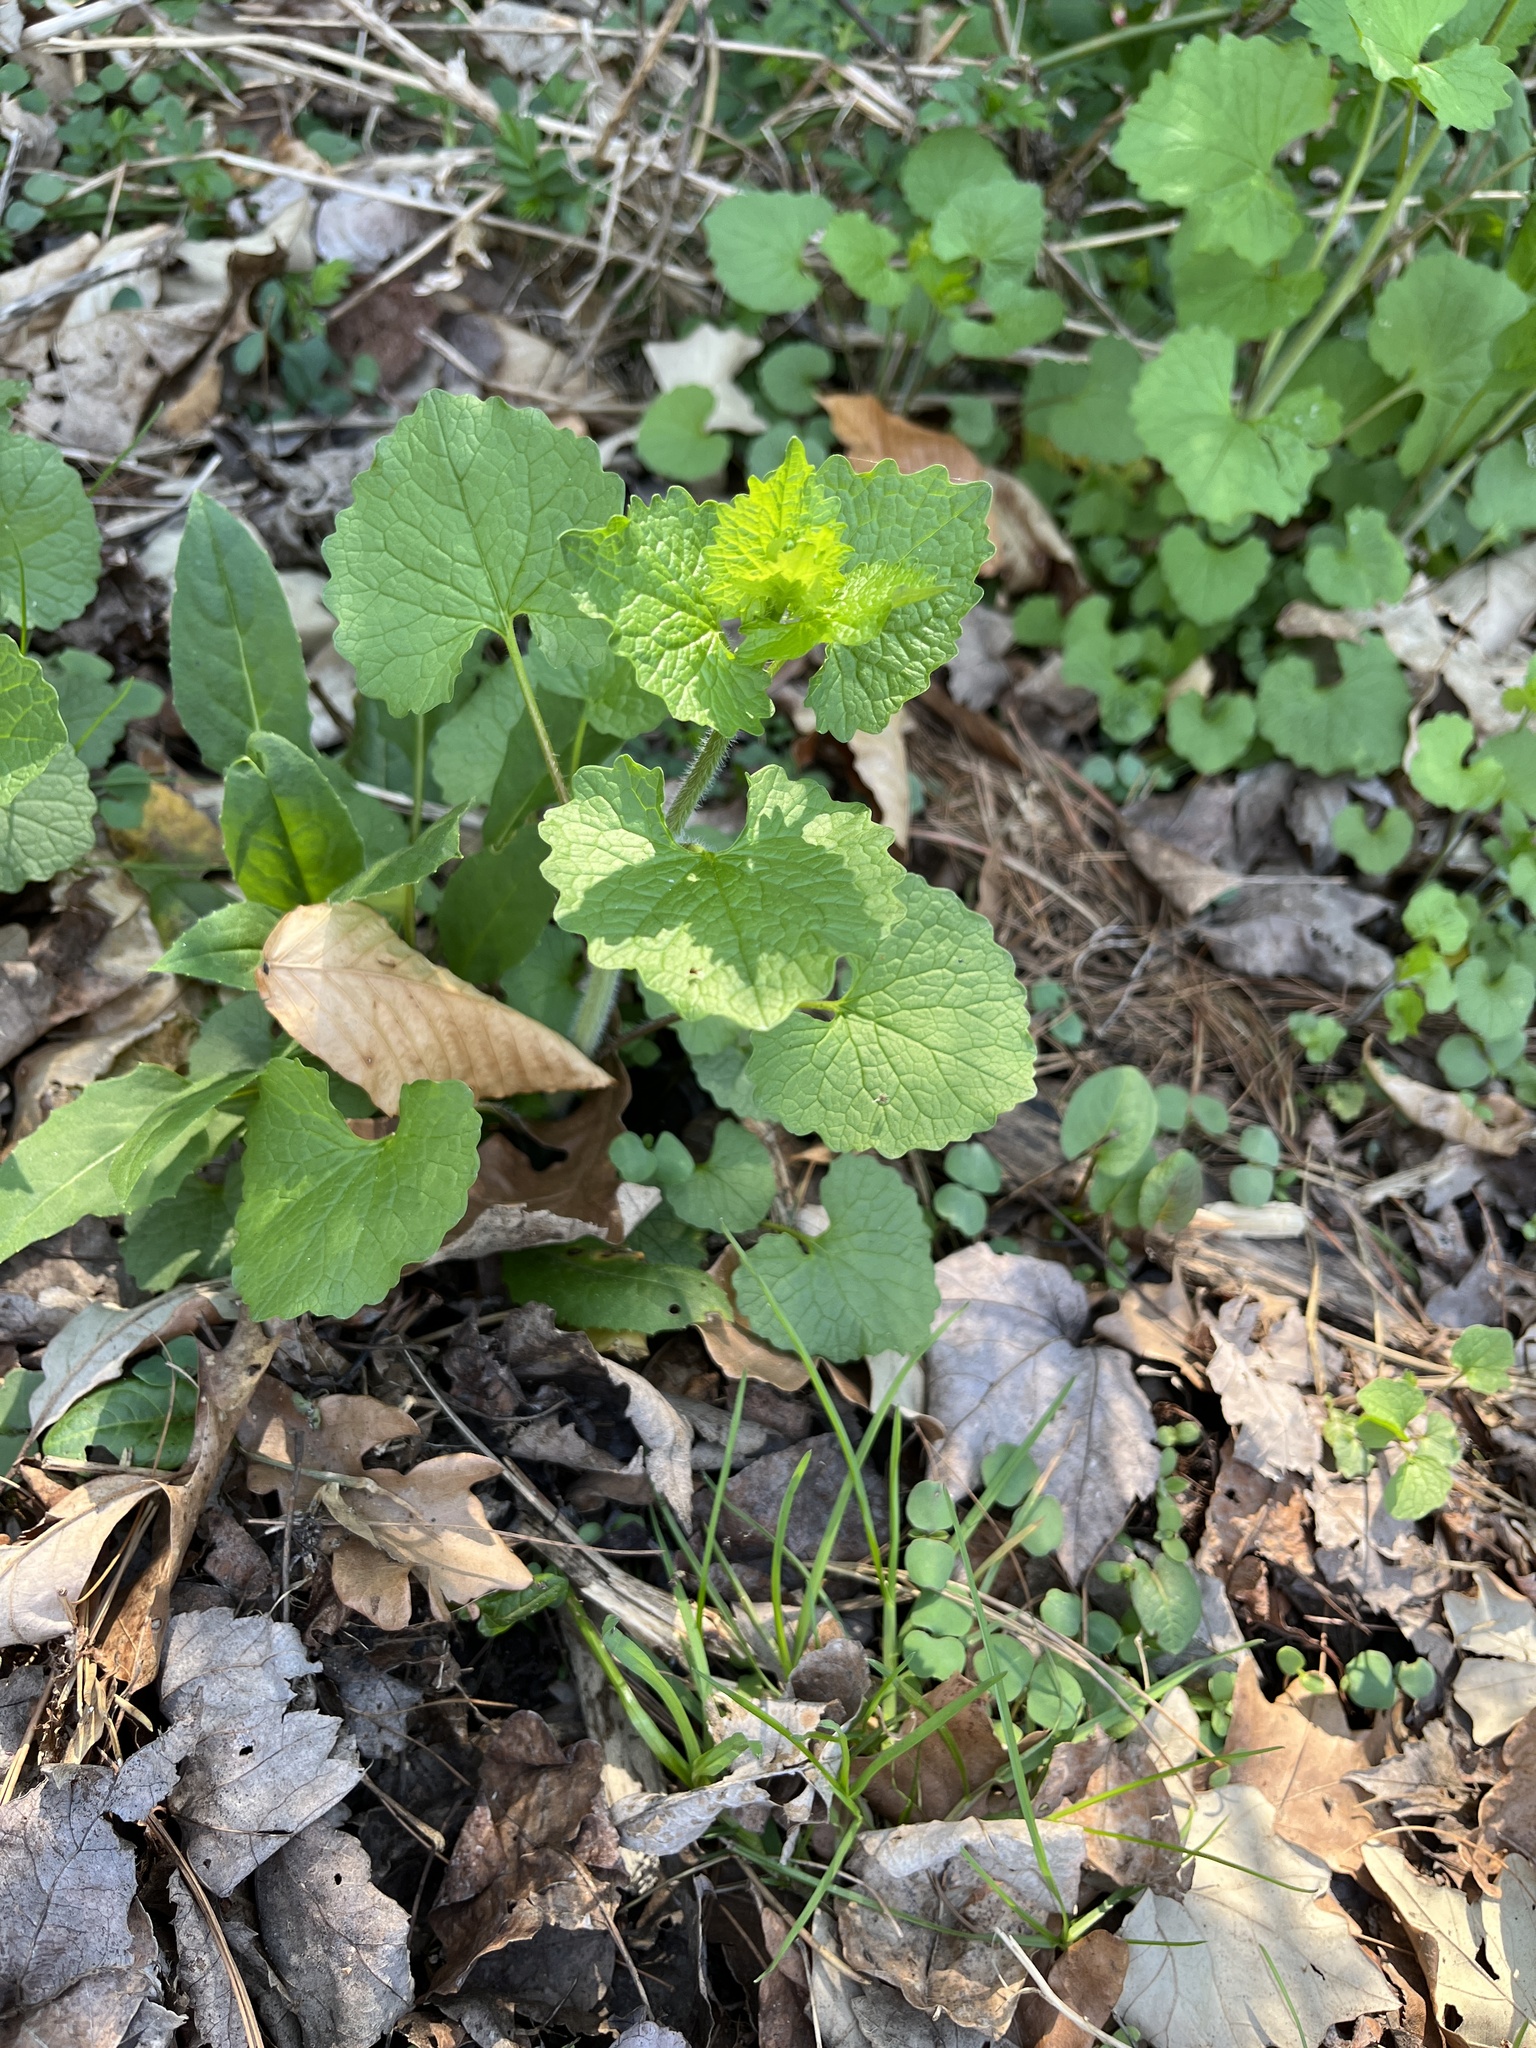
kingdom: Plantae
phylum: Tracheophyta
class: Magnoliopsida
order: Brassicales
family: Brassicaceae
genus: Alliaria
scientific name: Alliaria petiolata
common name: Garlic mustard
